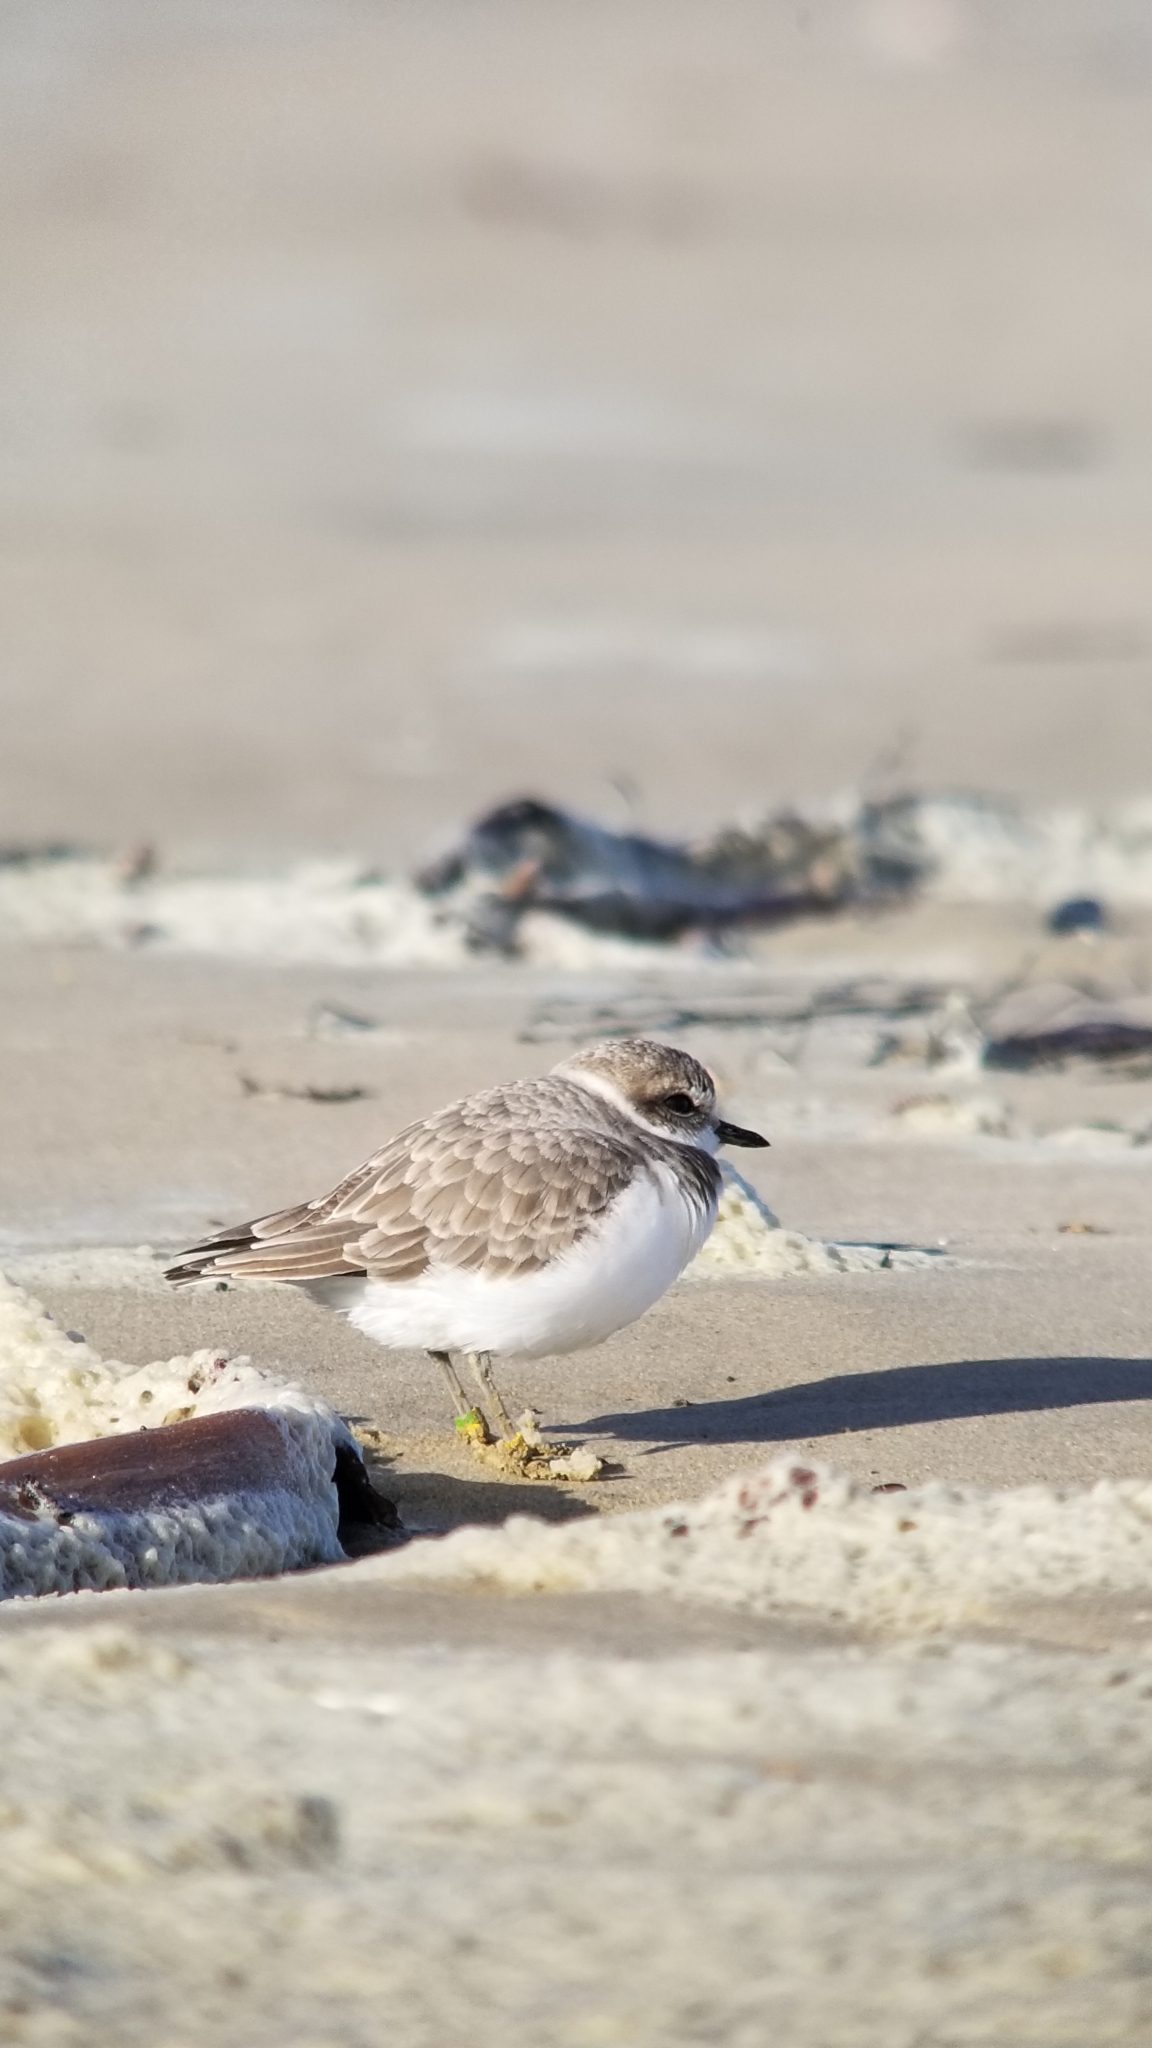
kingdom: Animalia
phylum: Chordata
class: Aves
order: Charadriiformes
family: Charadriidae
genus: Anarhynchus
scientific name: Anarhynchus
